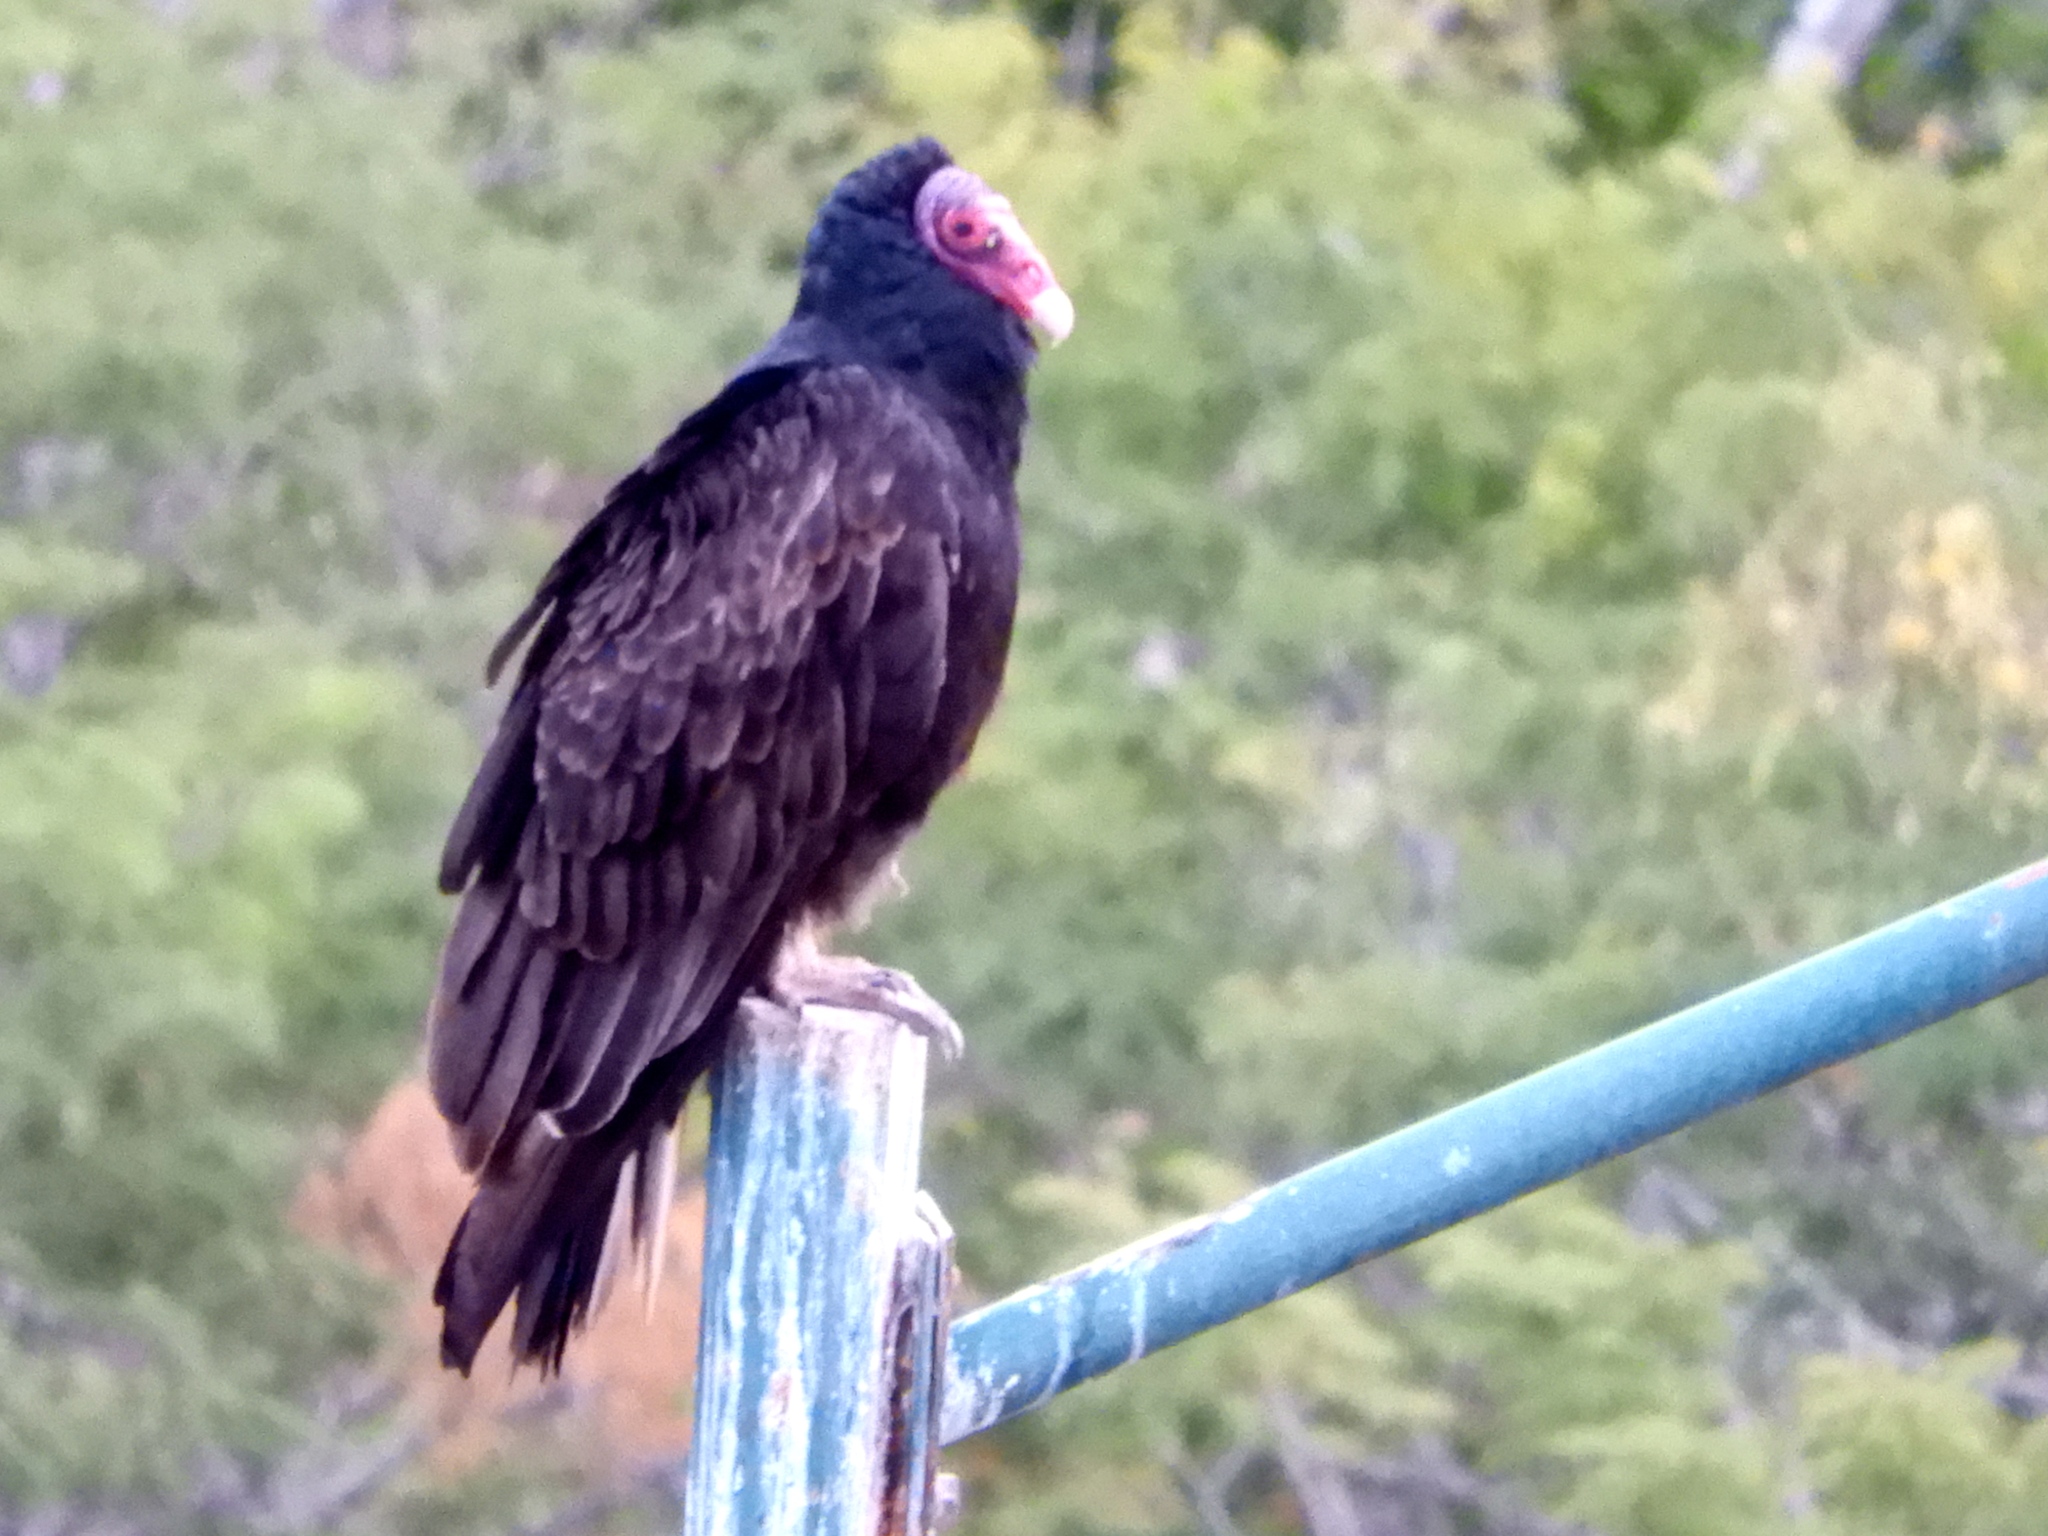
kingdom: Animalia
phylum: Chordata
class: Aves
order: Accipitriformes
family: Cathartidae
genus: Cathartes
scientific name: Cathartes aura
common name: Turkey vulture
